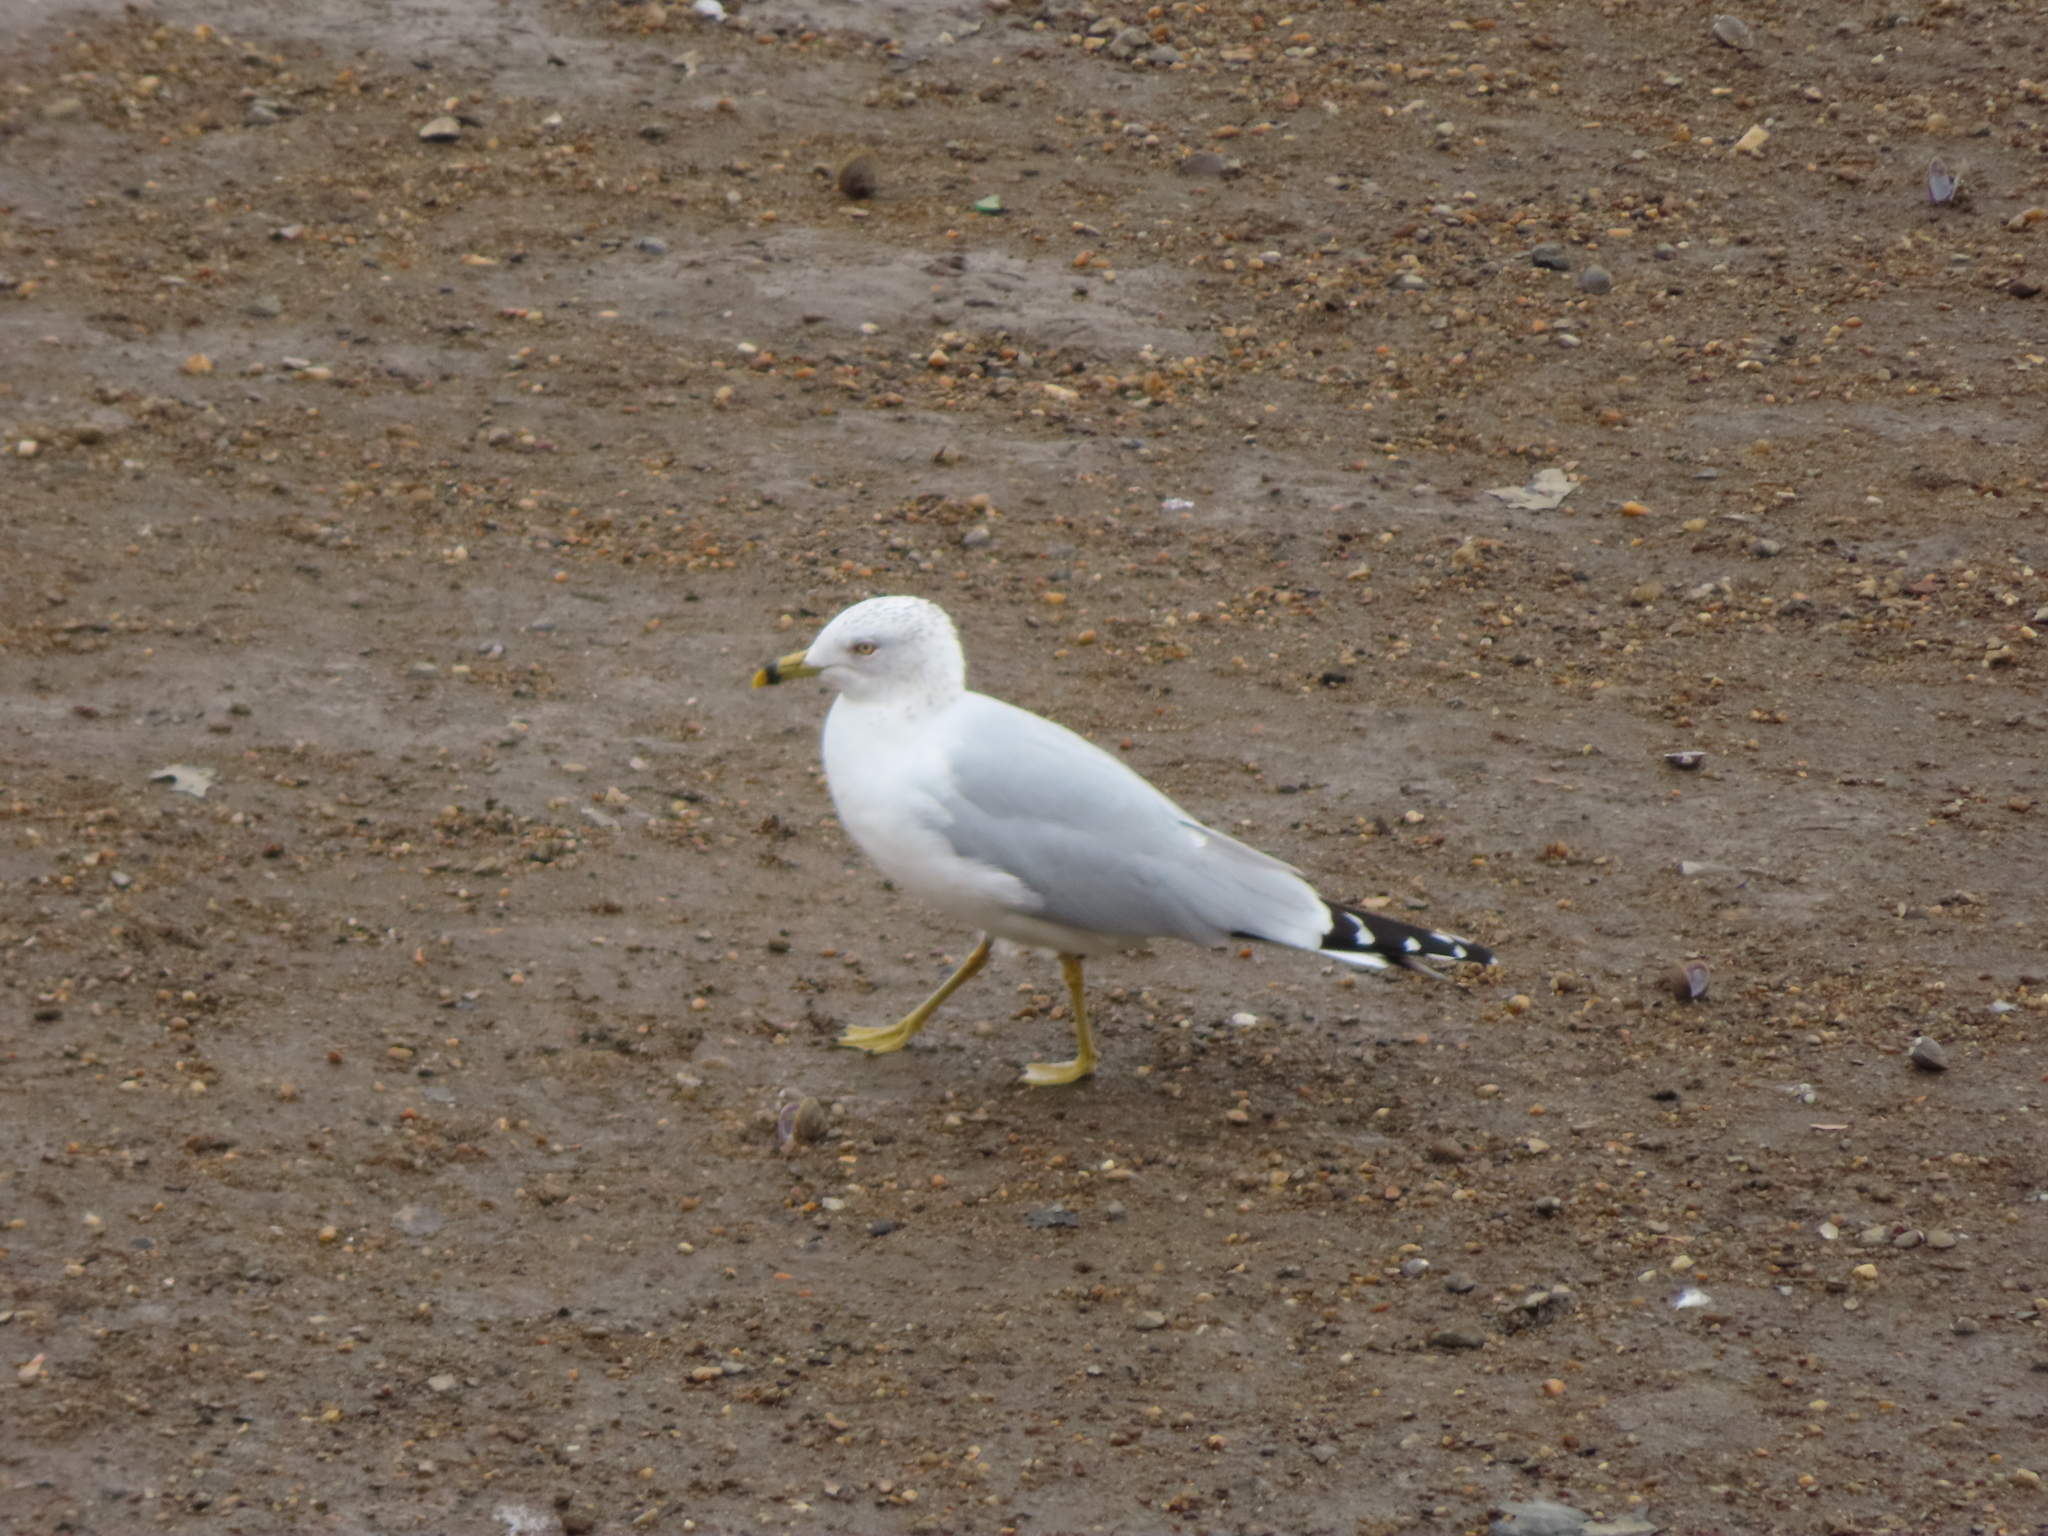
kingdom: Animalia
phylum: Chordata
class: Aves
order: Charadriiformes
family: Laridae
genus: Larus
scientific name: Larus delawarensis
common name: Ring-billed gull
